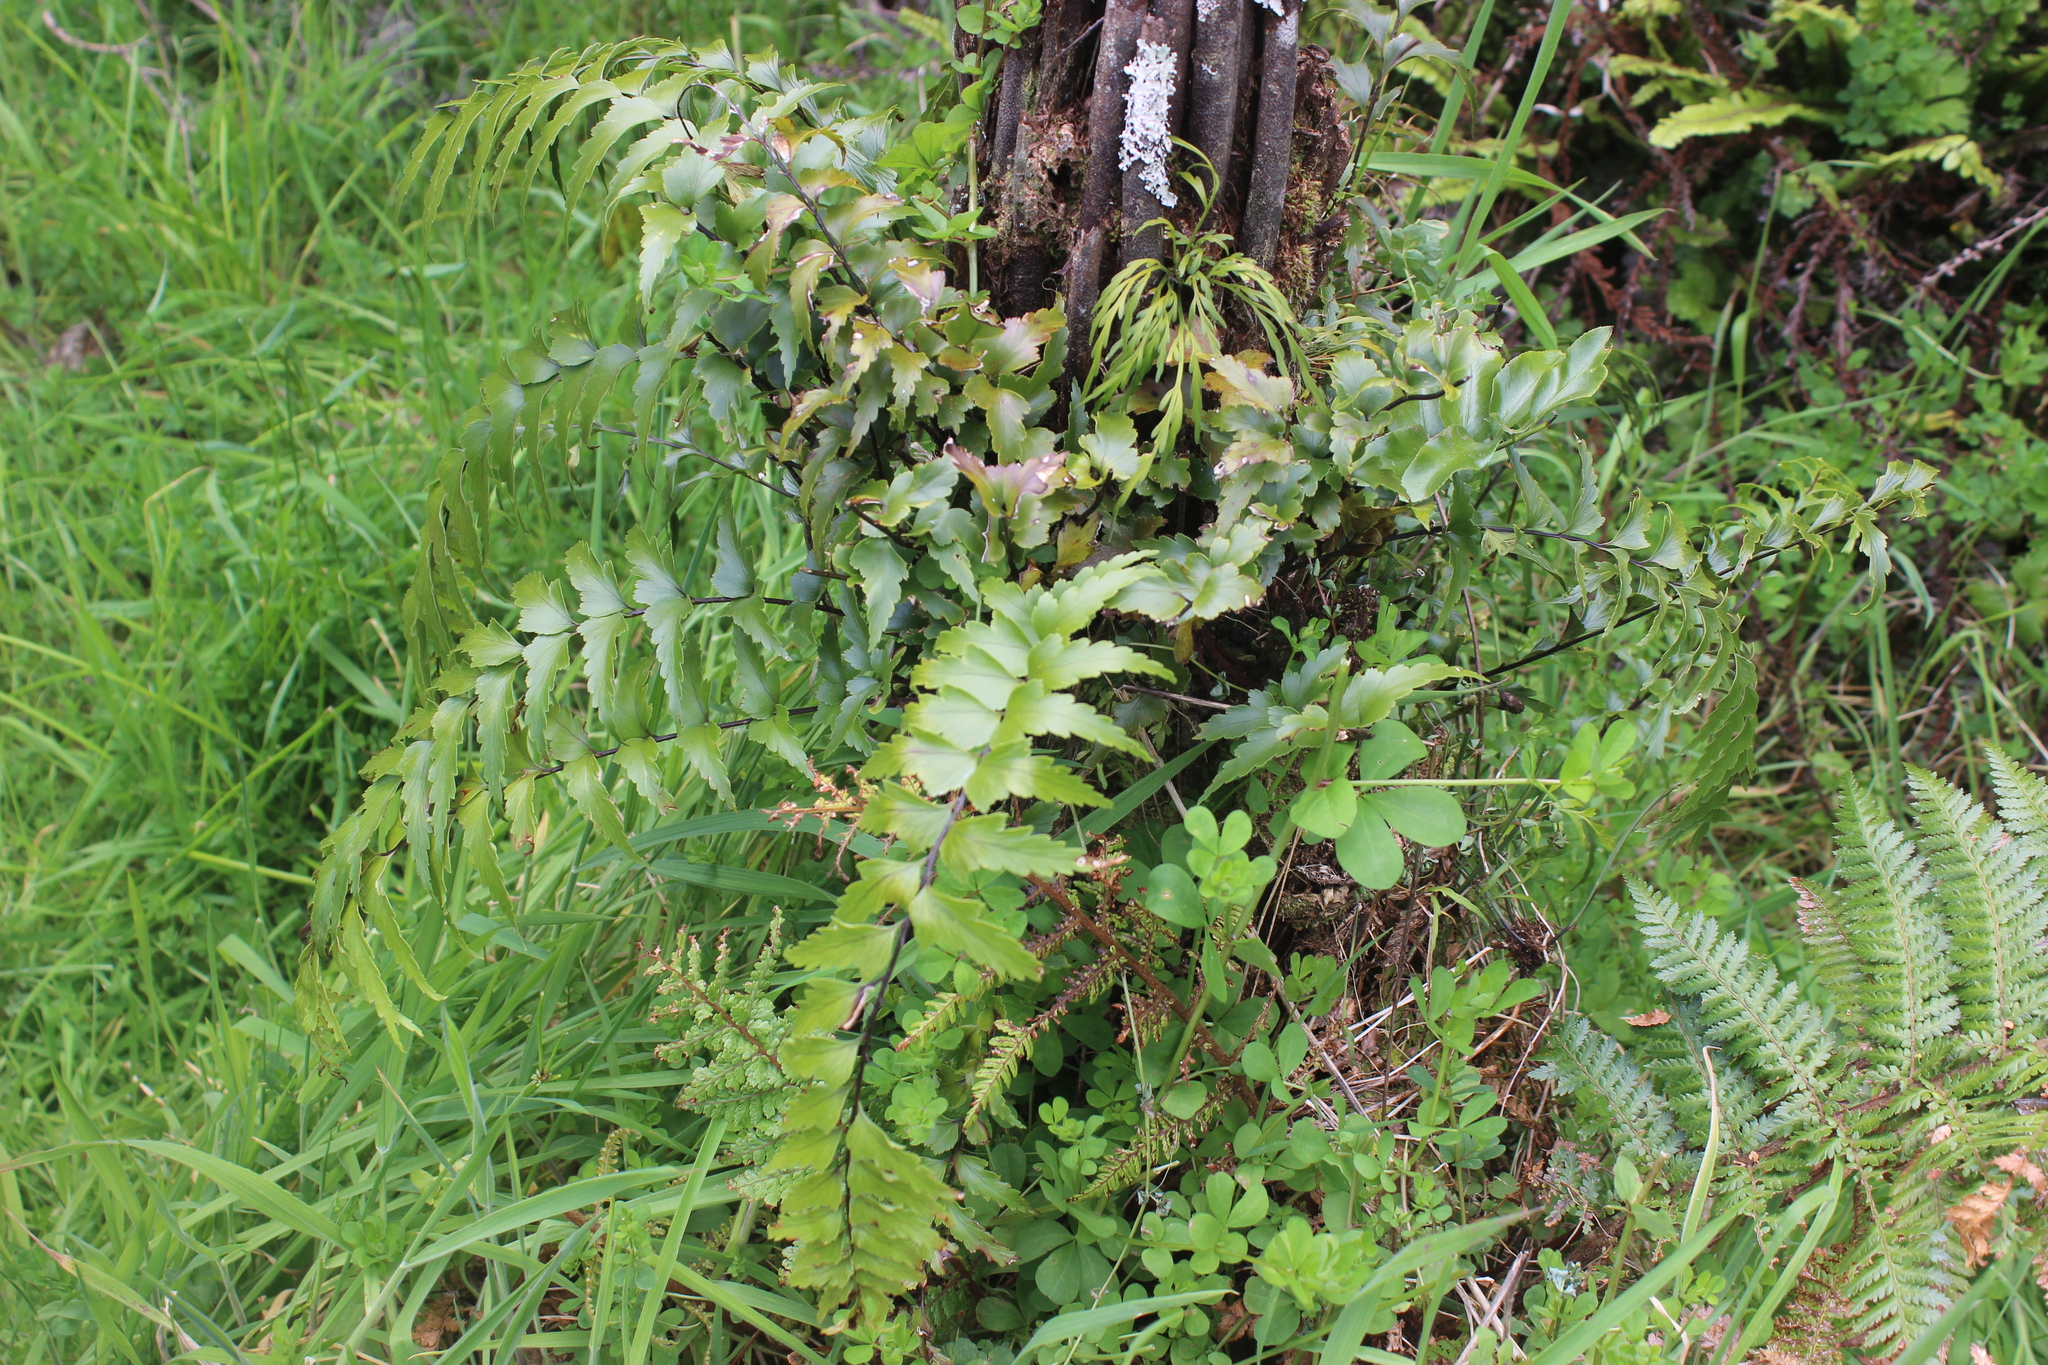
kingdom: Plantae
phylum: Tracheophyta
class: Polypodiopsida
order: Polypodiales
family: Aspleniaceae
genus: Asplenium
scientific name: Asplenium polyodon
